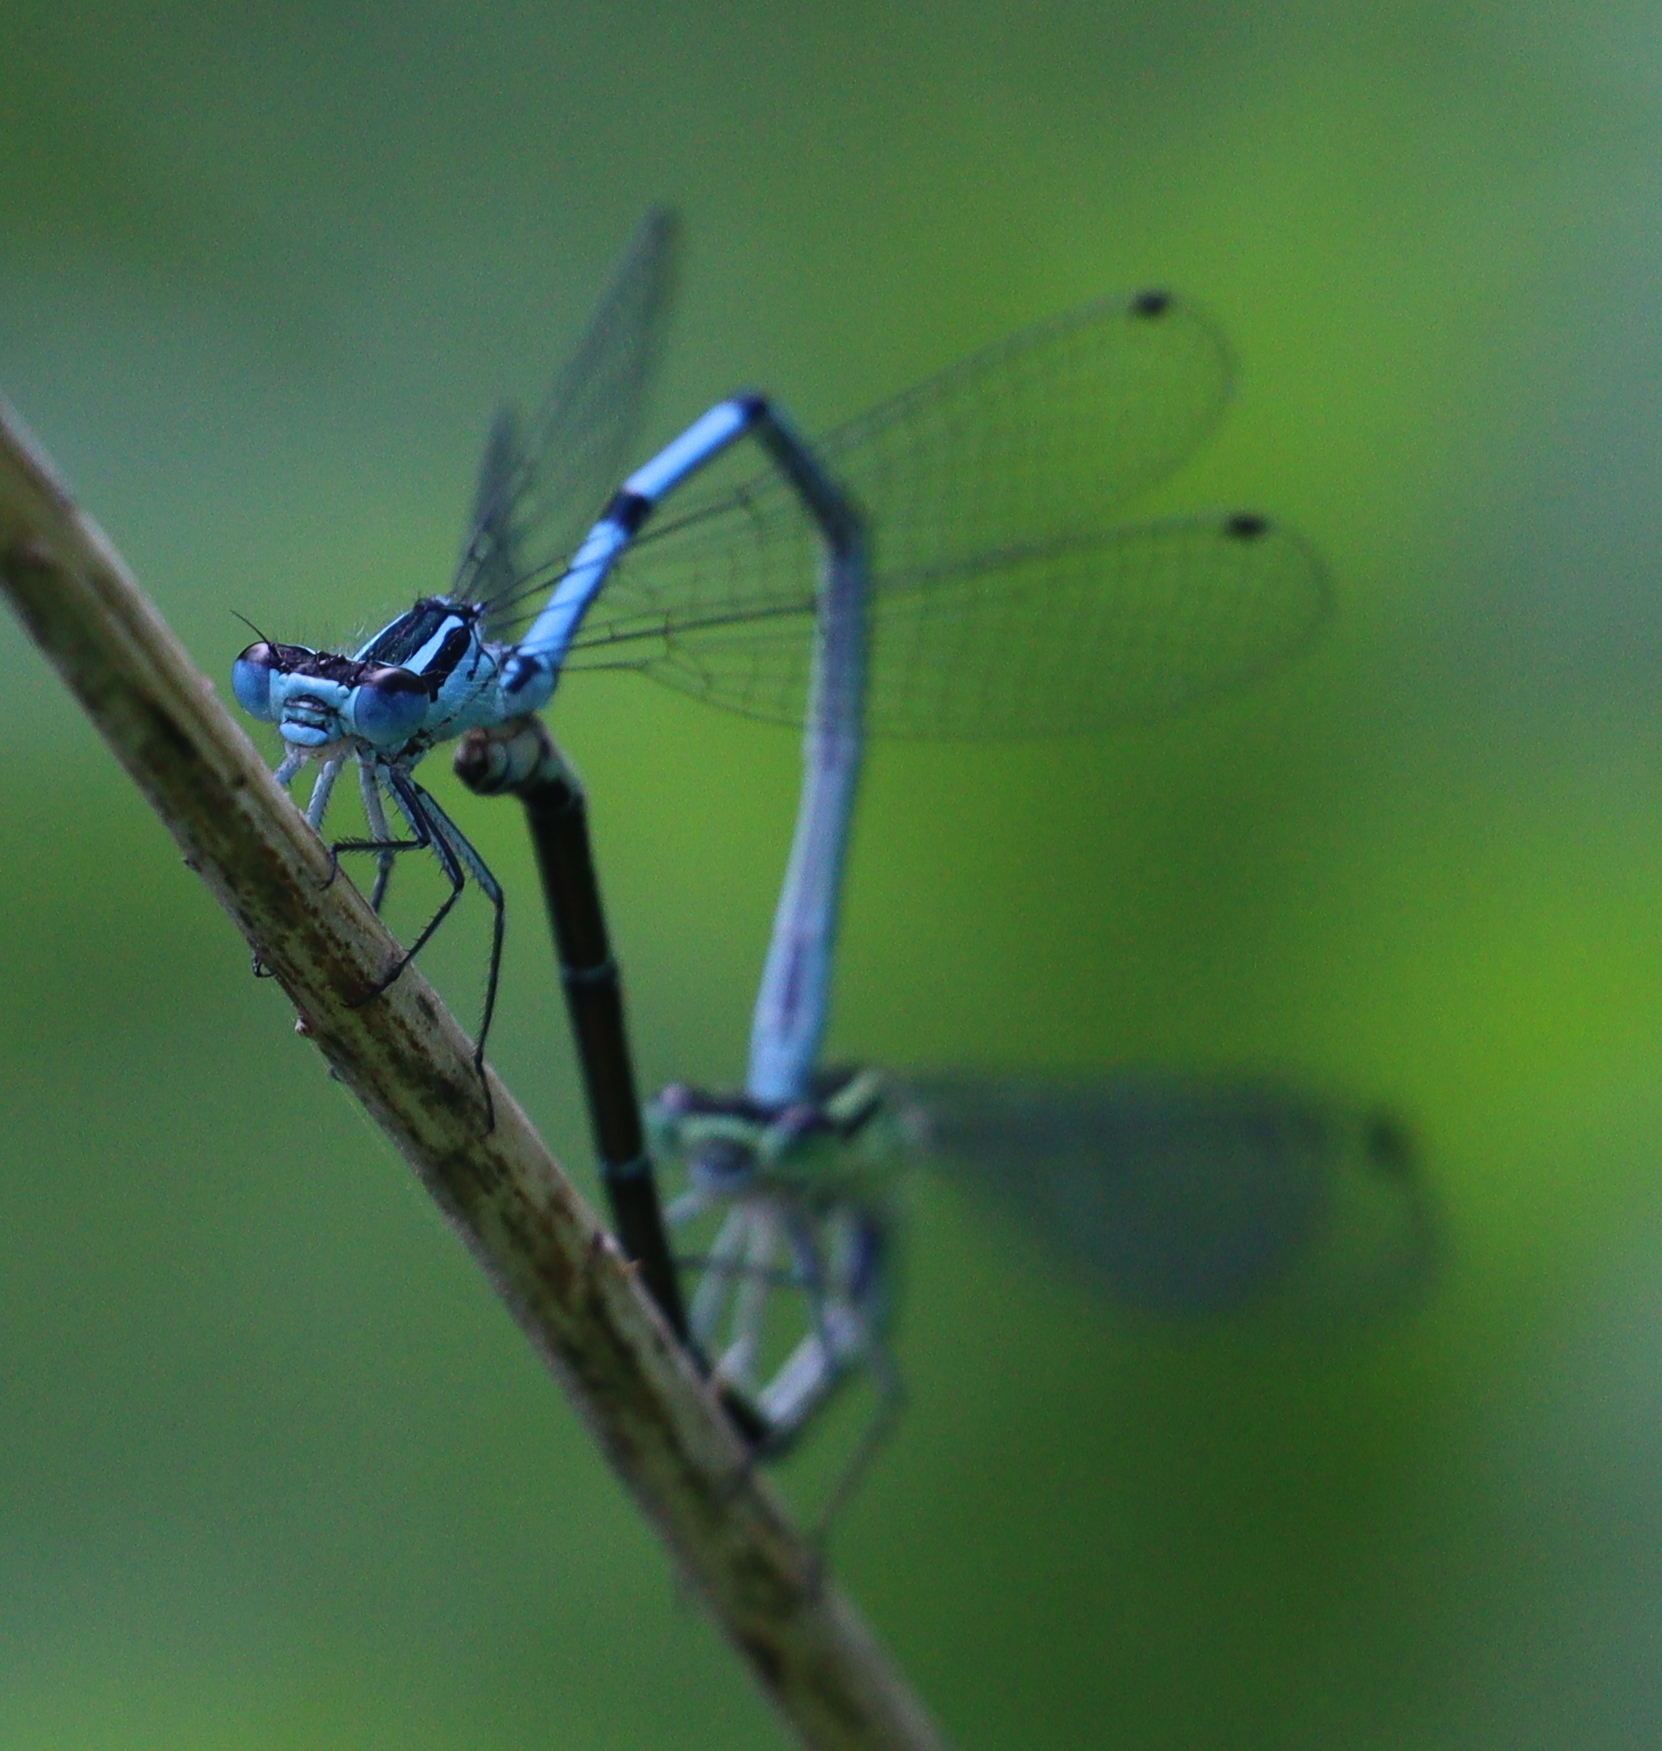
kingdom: Animalia
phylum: Arthropoda
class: Insecta
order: Odonata
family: Coenagrionidae
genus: Coenagrion
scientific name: Coenagrion puella
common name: Azure damselfly
